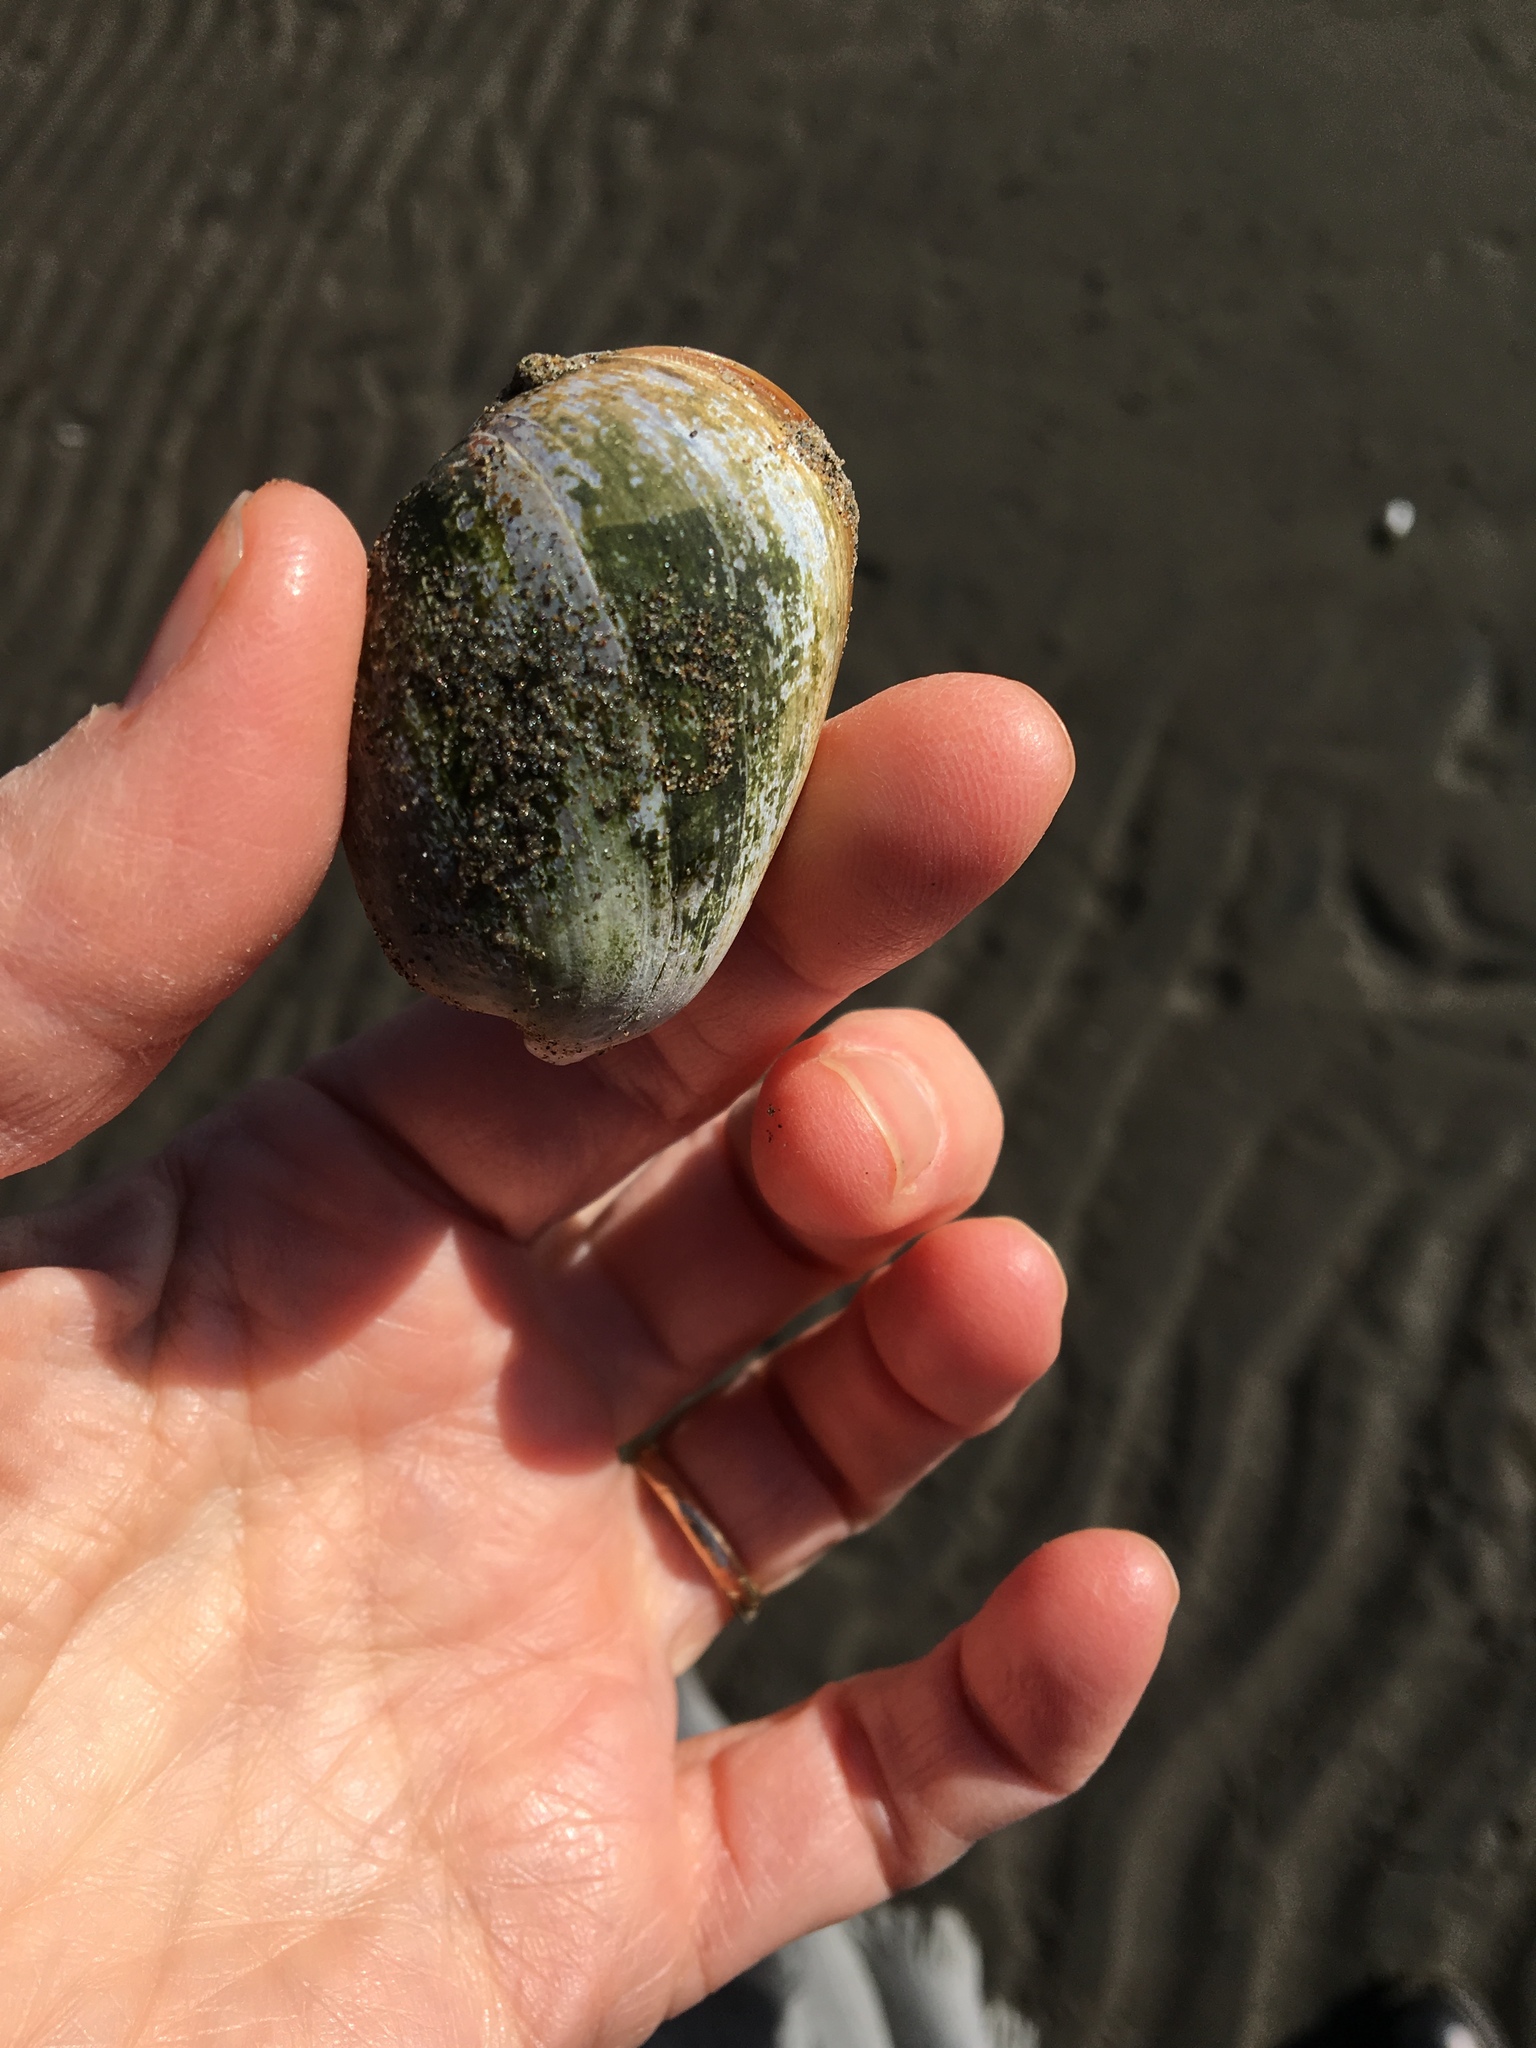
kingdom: Animalia
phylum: Mollusca
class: Gastropoda
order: Cephalaspidea
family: Bullidae
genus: Bulla
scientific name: Bulla gouldiana
